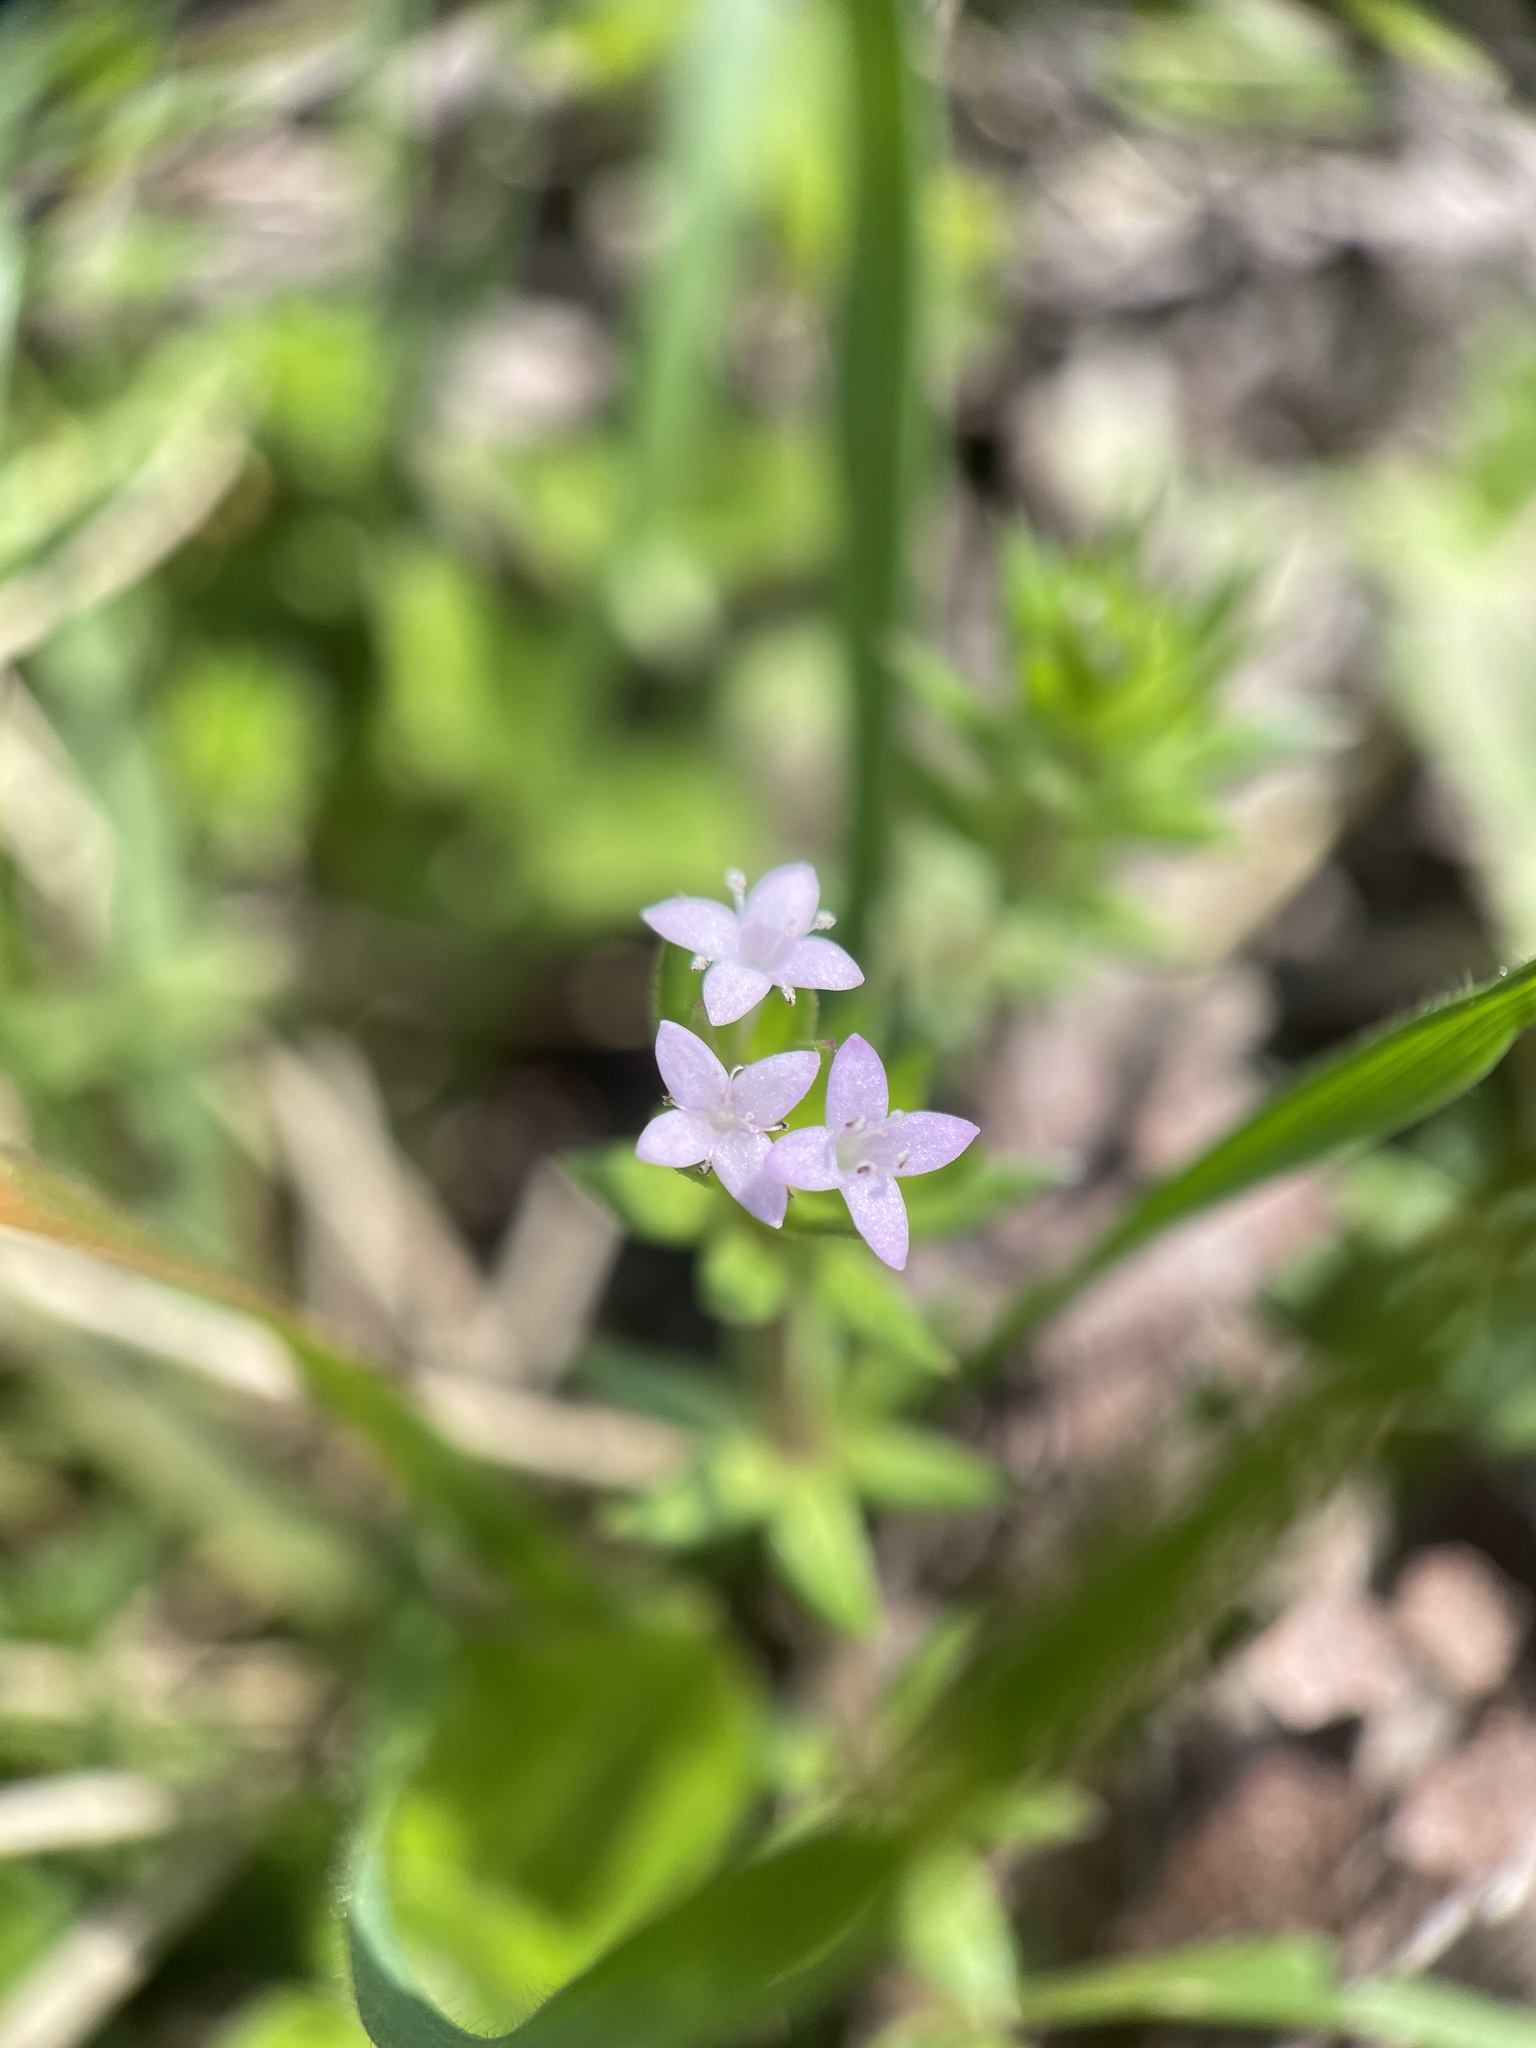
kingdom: Plantae
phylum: Tracheophyta
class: Magnoliopsida
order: Gentianales
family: Rubiaceae
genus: Sherardia
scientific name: Sherardia arvensis
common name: Field madder
